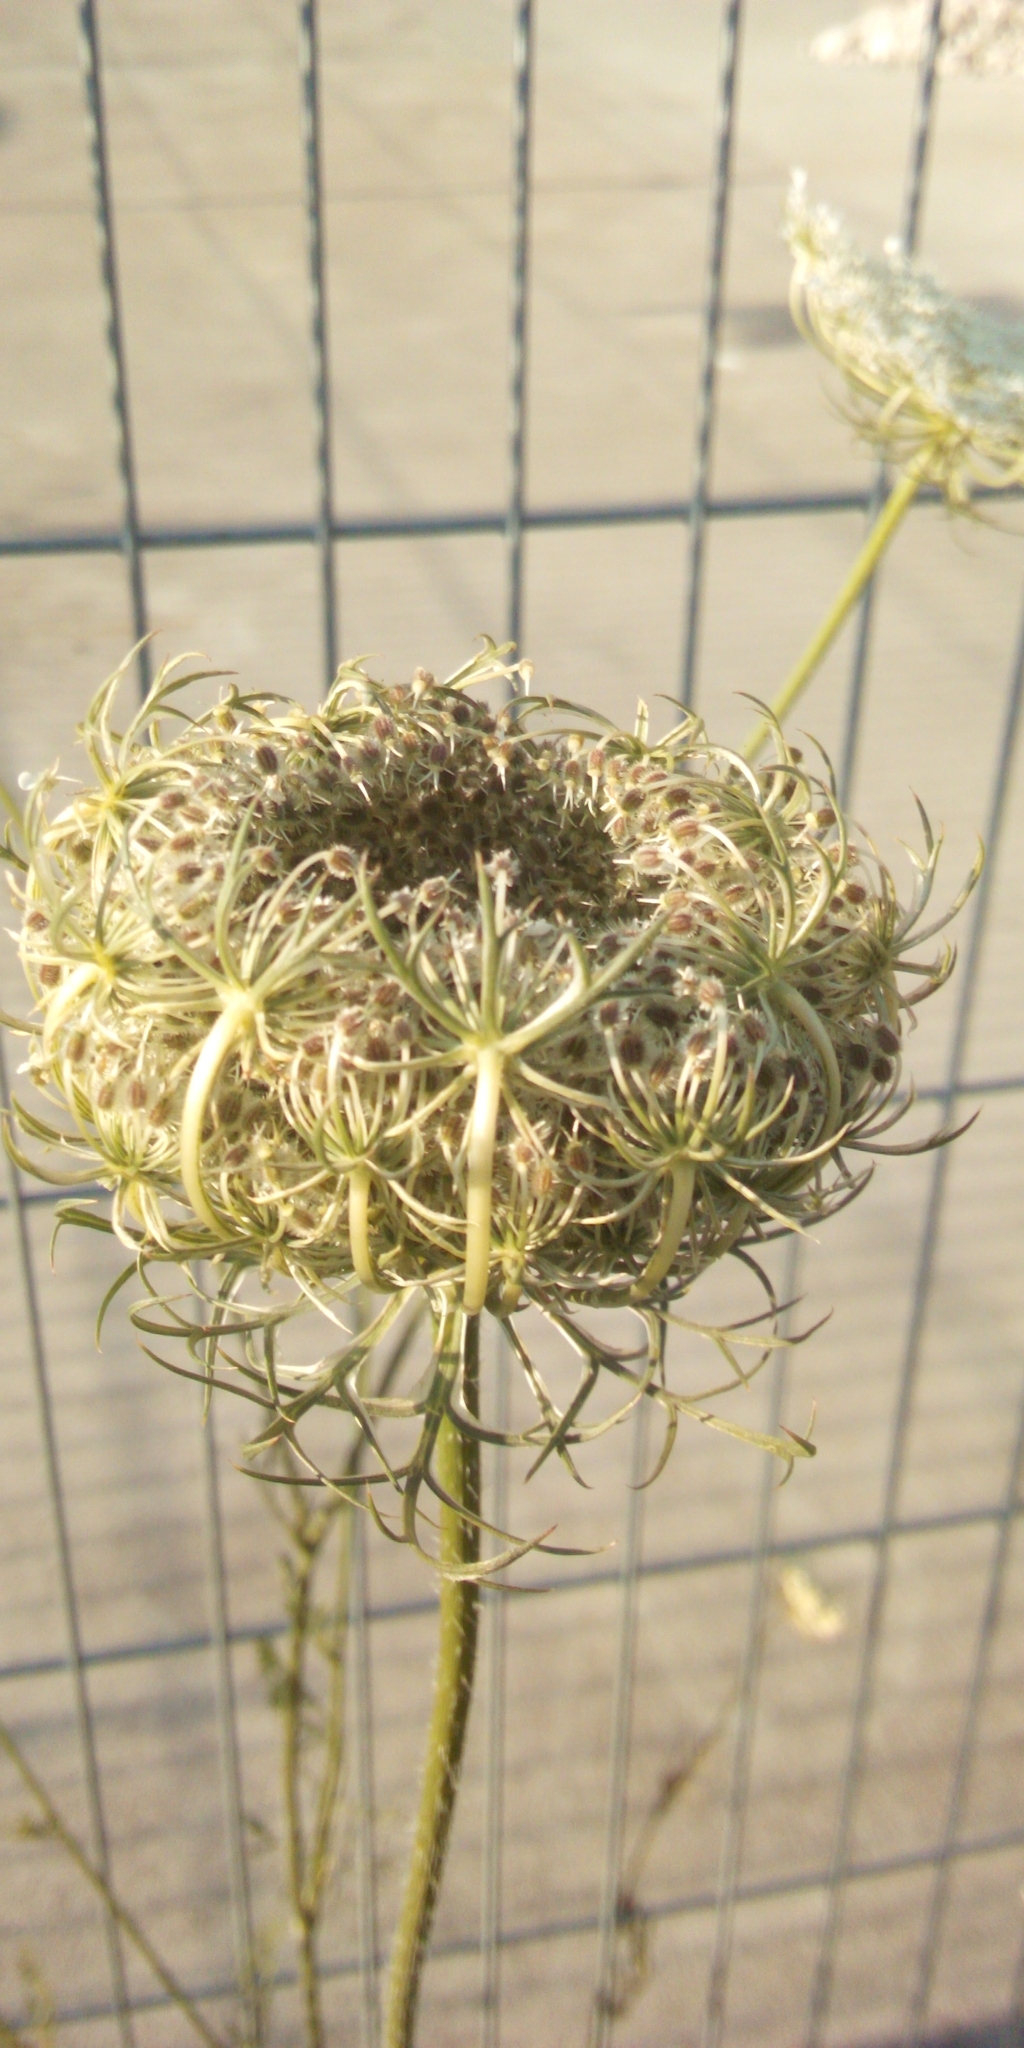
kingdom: Plantae
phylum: Tracheophyta
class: Magnoliopsida
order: Apiales
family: Apiaceae
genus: Daucus
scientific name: Daucus carota
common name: Wild carrot
